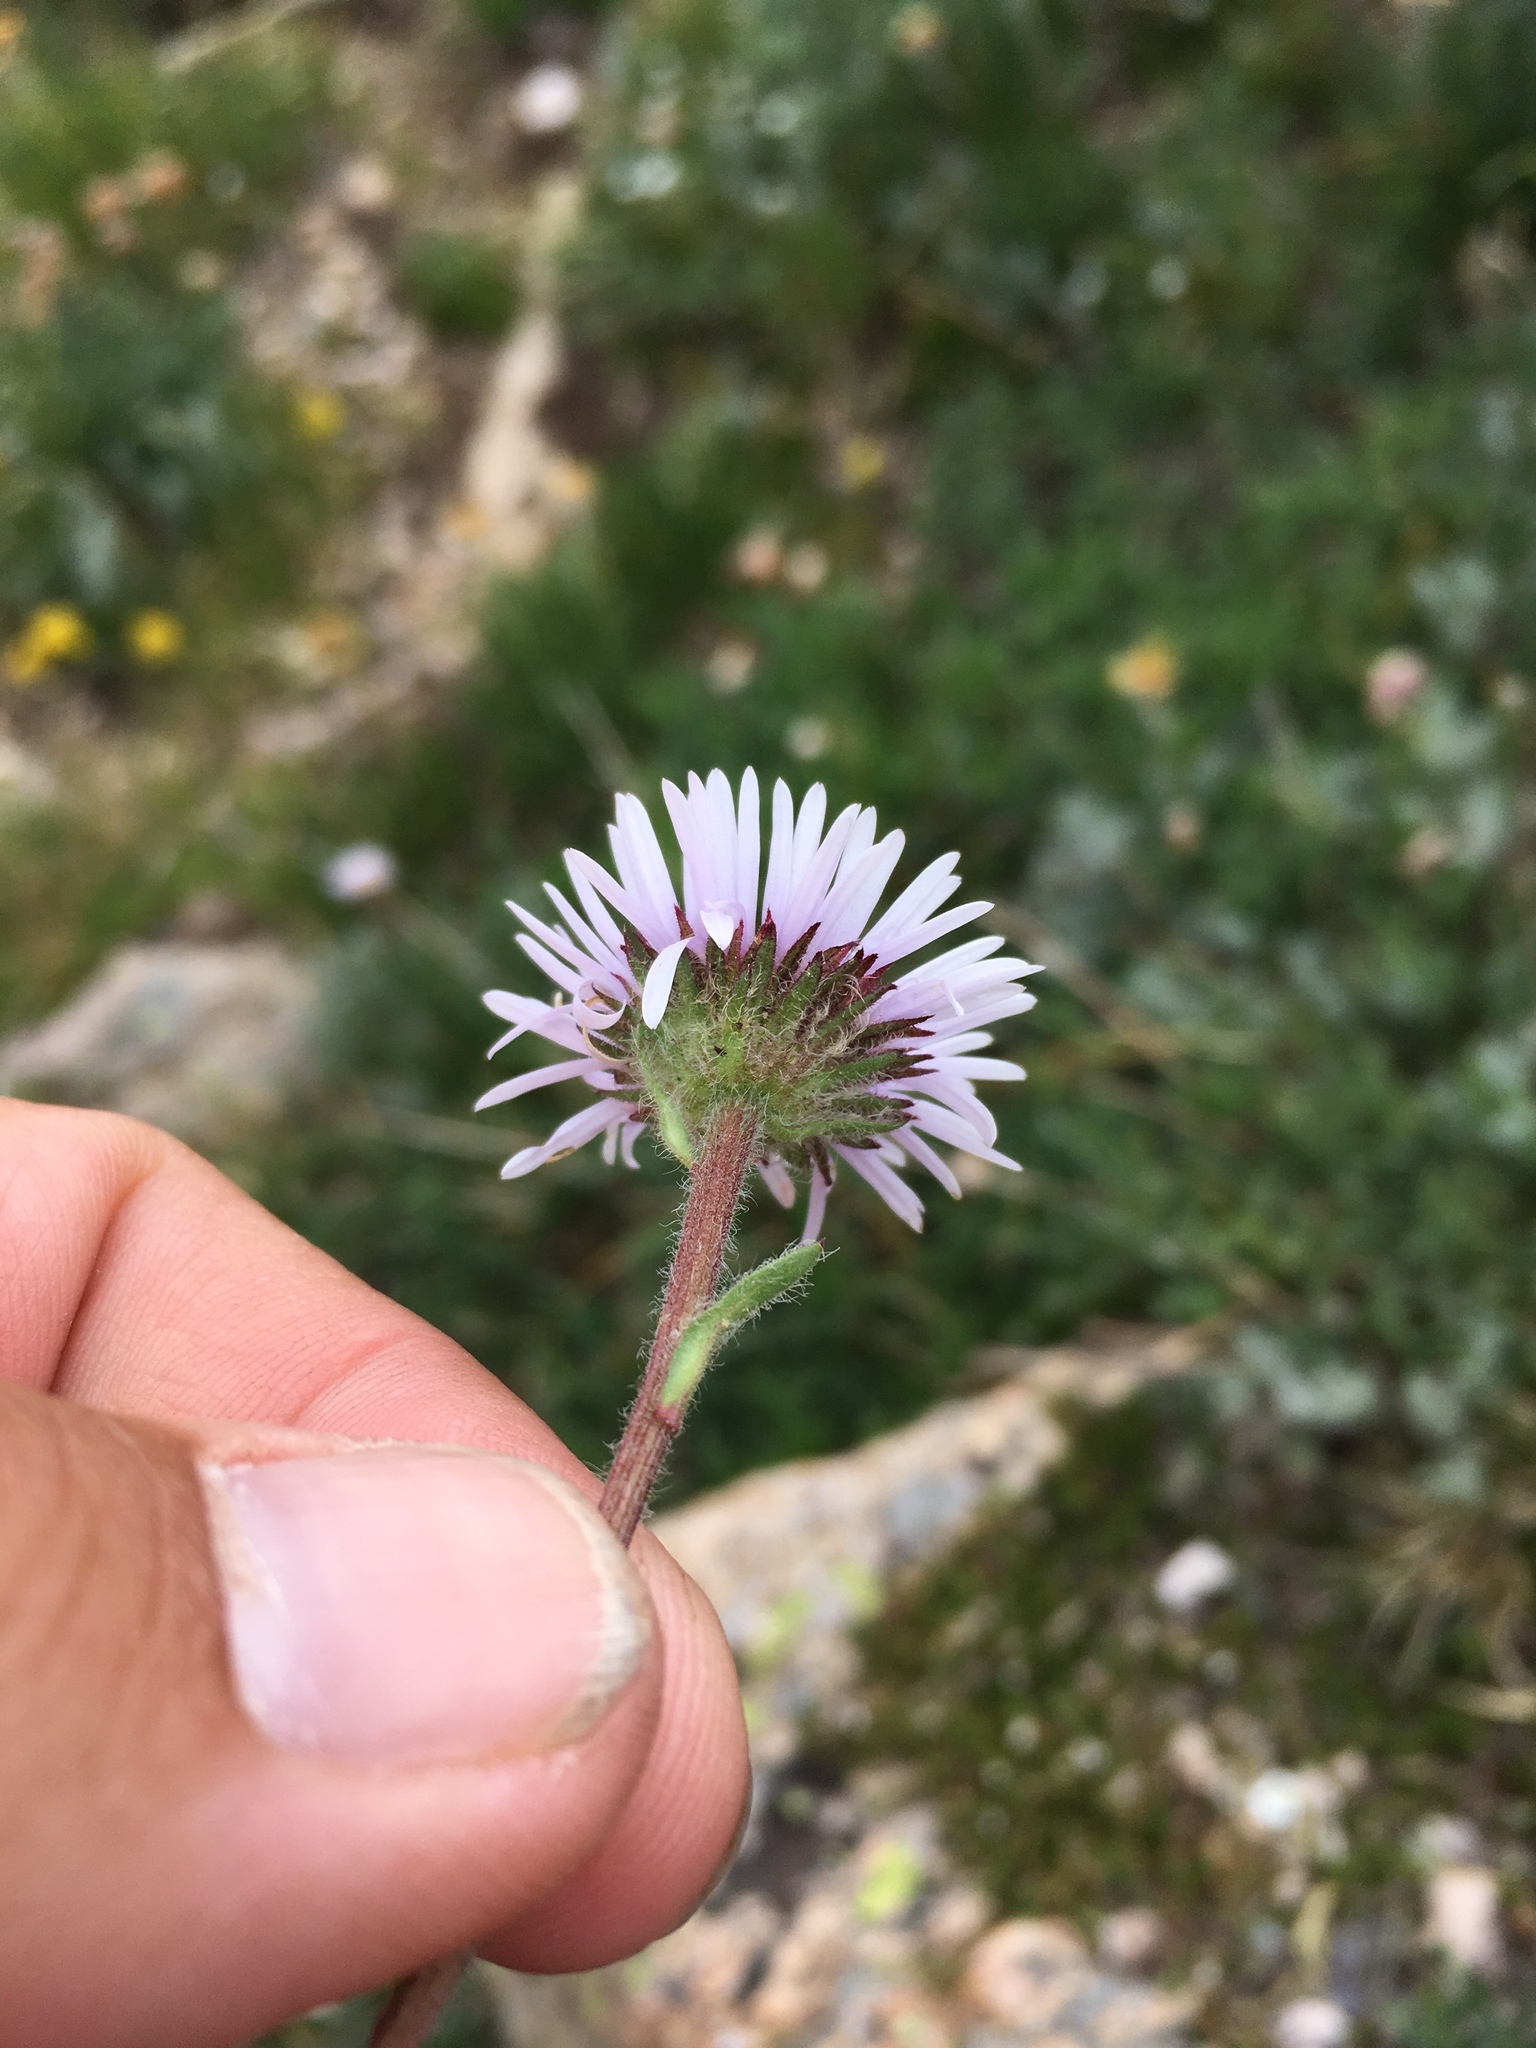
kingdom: Plantae
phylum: Tracheophyta
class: Magnoliopsida
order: Asterales
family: Asteraceae
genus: Erigeron
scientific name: Erigeron grandiflorus
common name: Rocky mountain alpine fleabane
